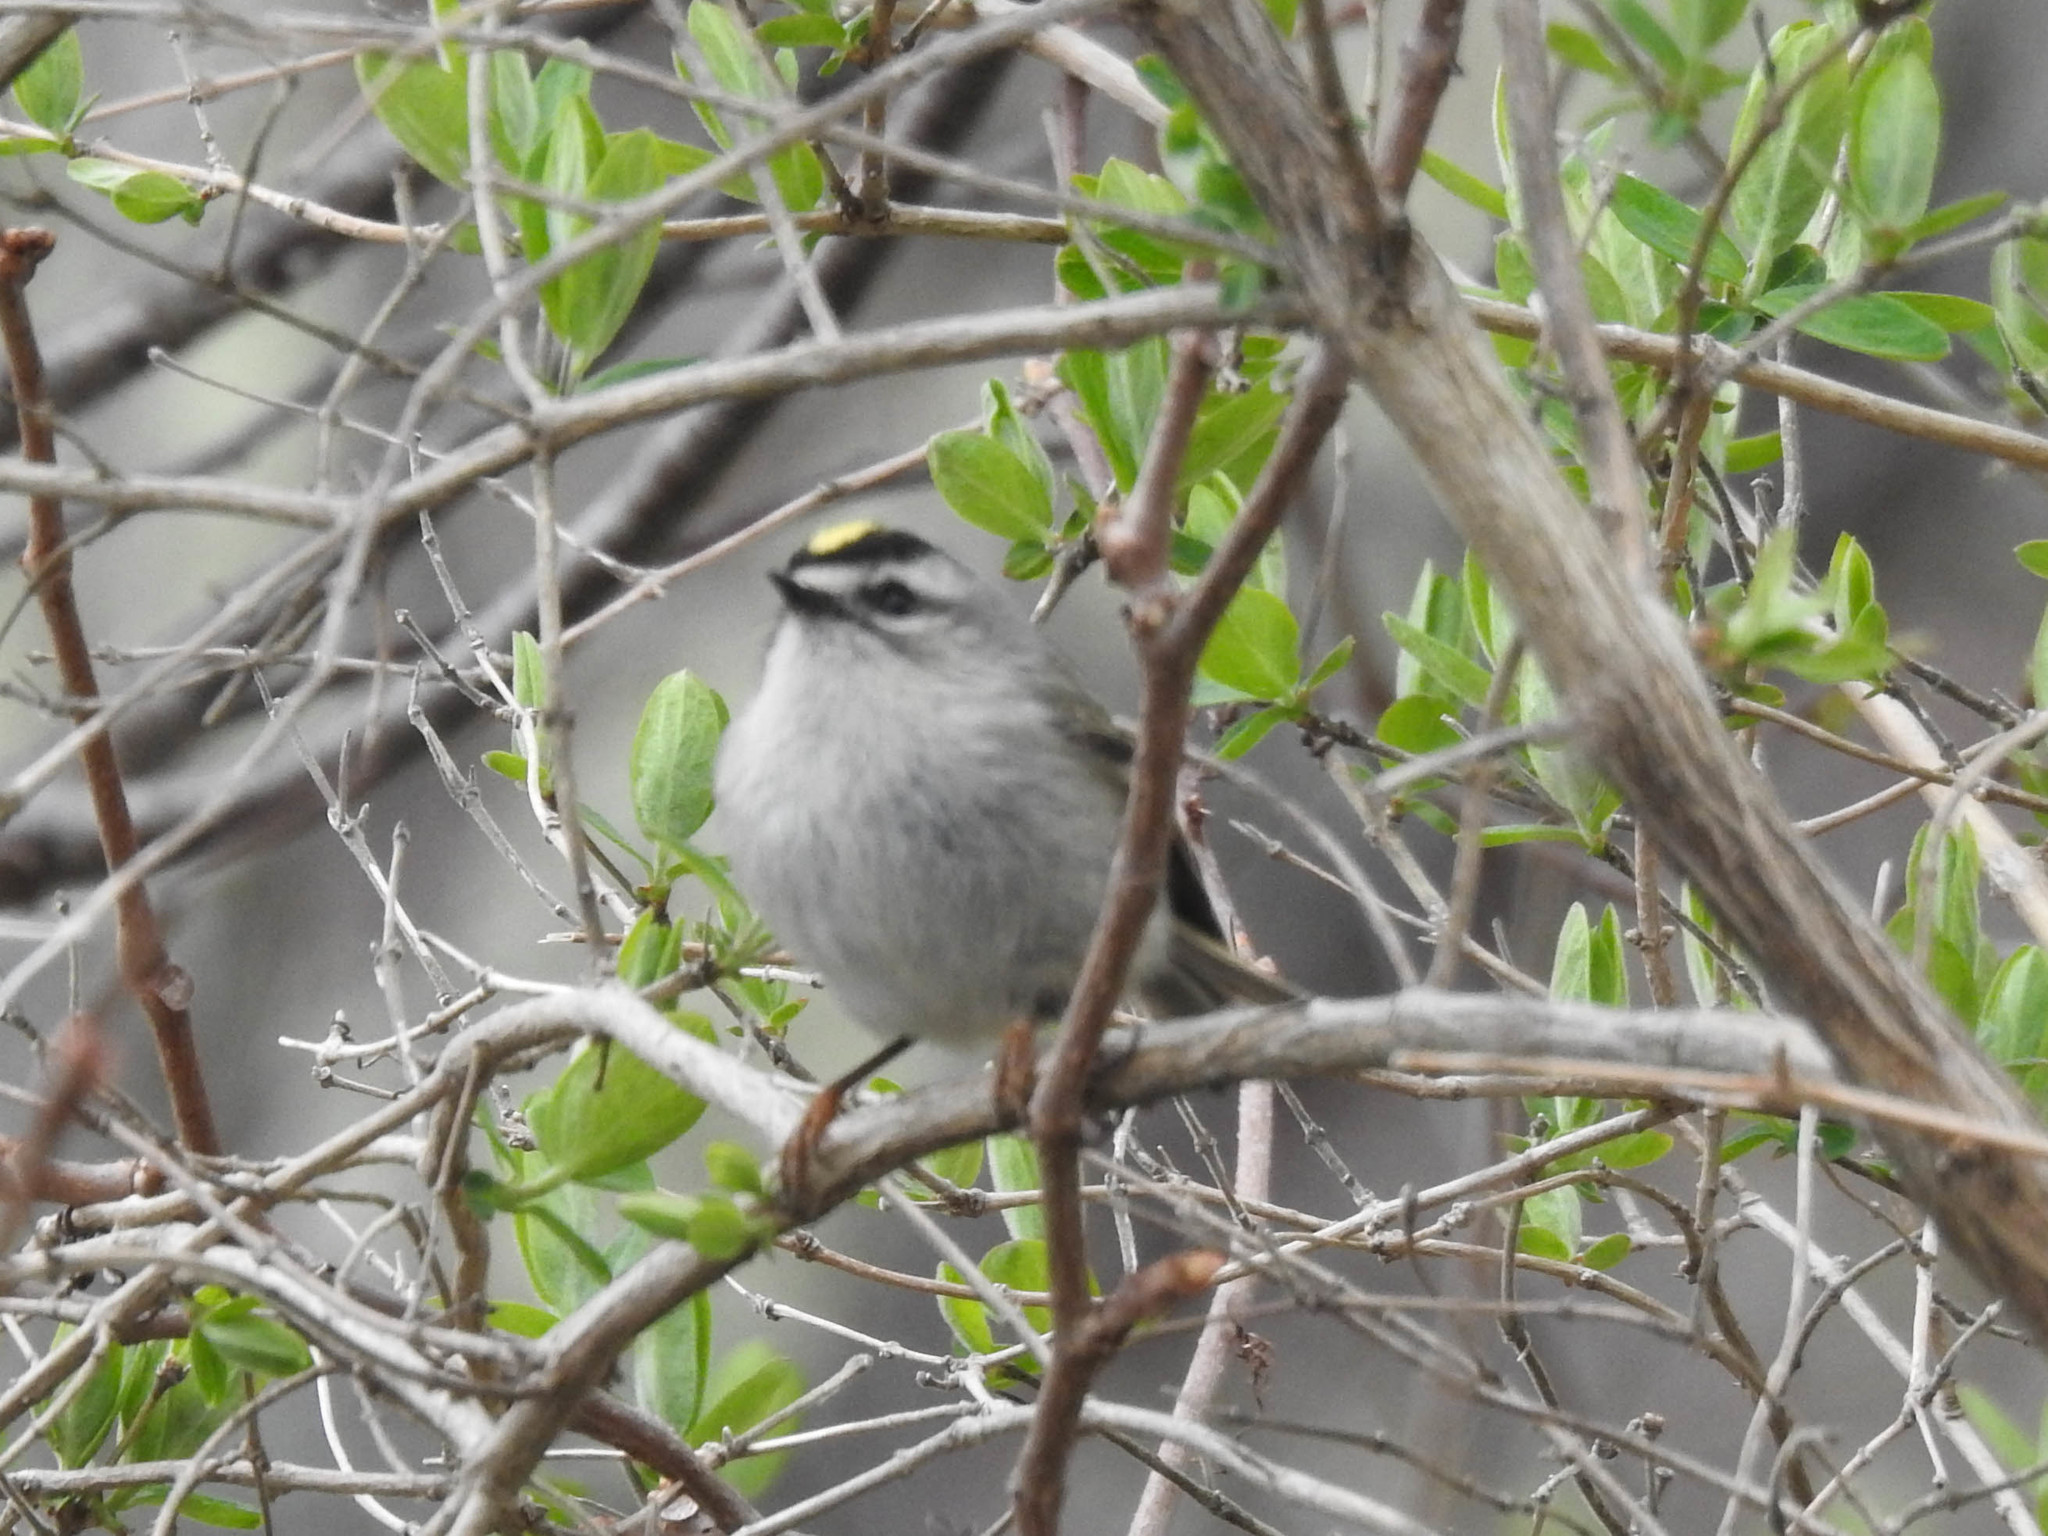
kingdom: Animalia
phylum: Chordata
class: Aves
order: Passeriformes
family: Regulidae
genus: Regulus
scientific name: Regulus satrapa
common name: Golden-crowned kinglet
